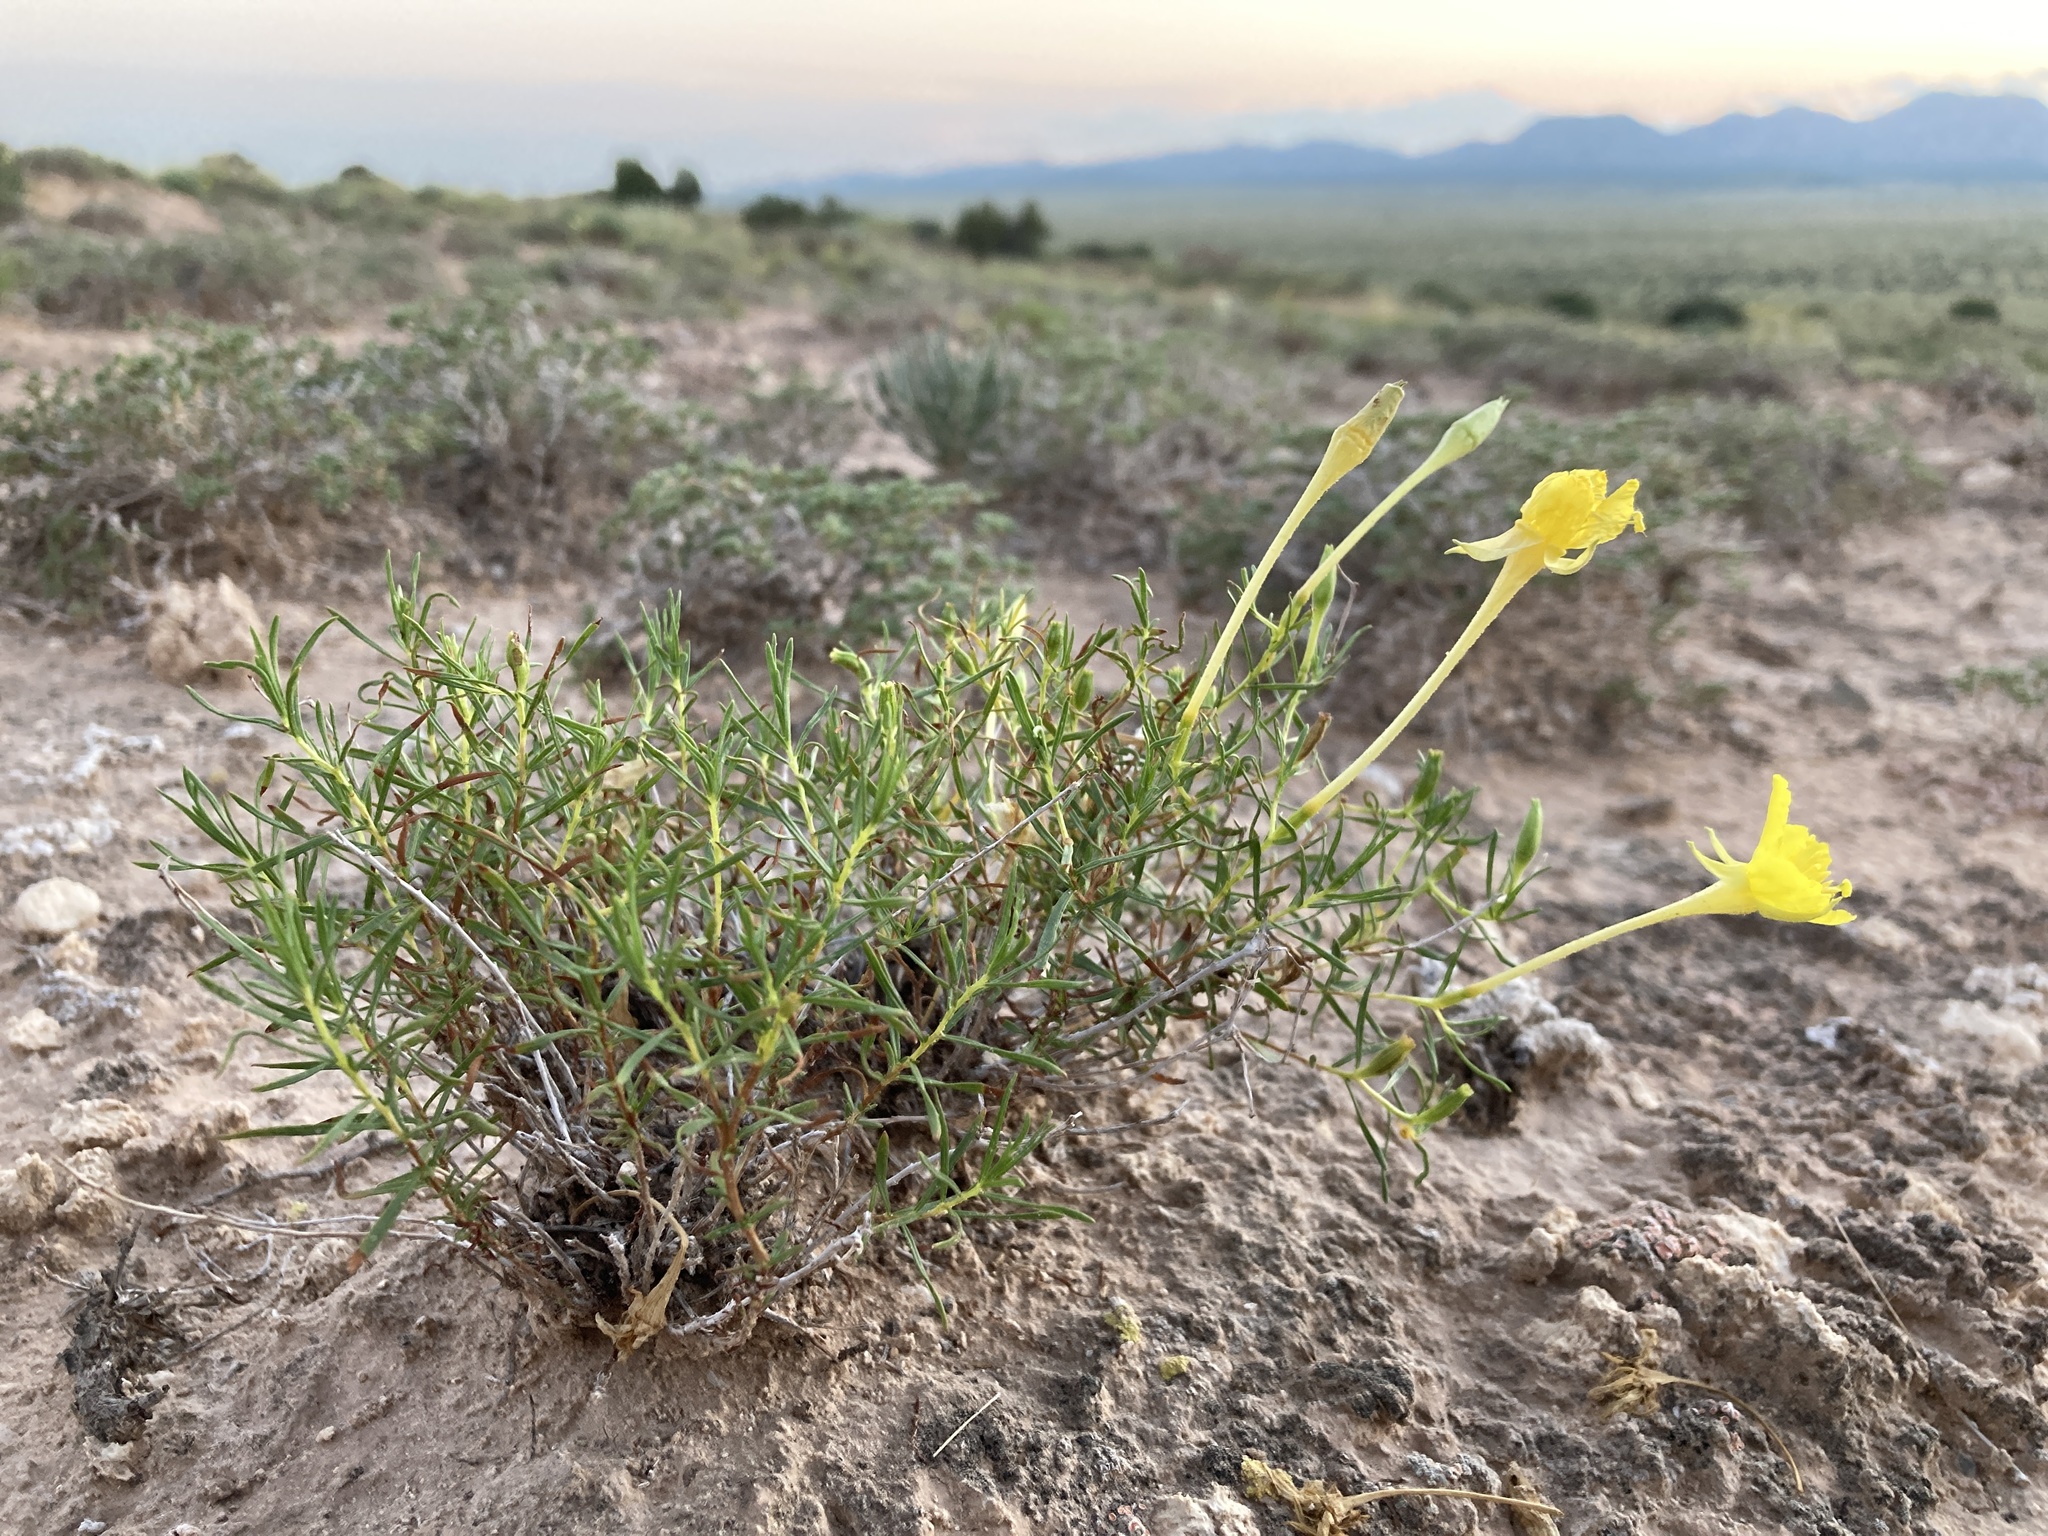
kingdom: Plantae
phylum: Tracheophyta
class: Magnoliopsida
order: Myrtales
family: Onagraceae
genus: Oenothera
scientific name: Oenothera hartwegii
